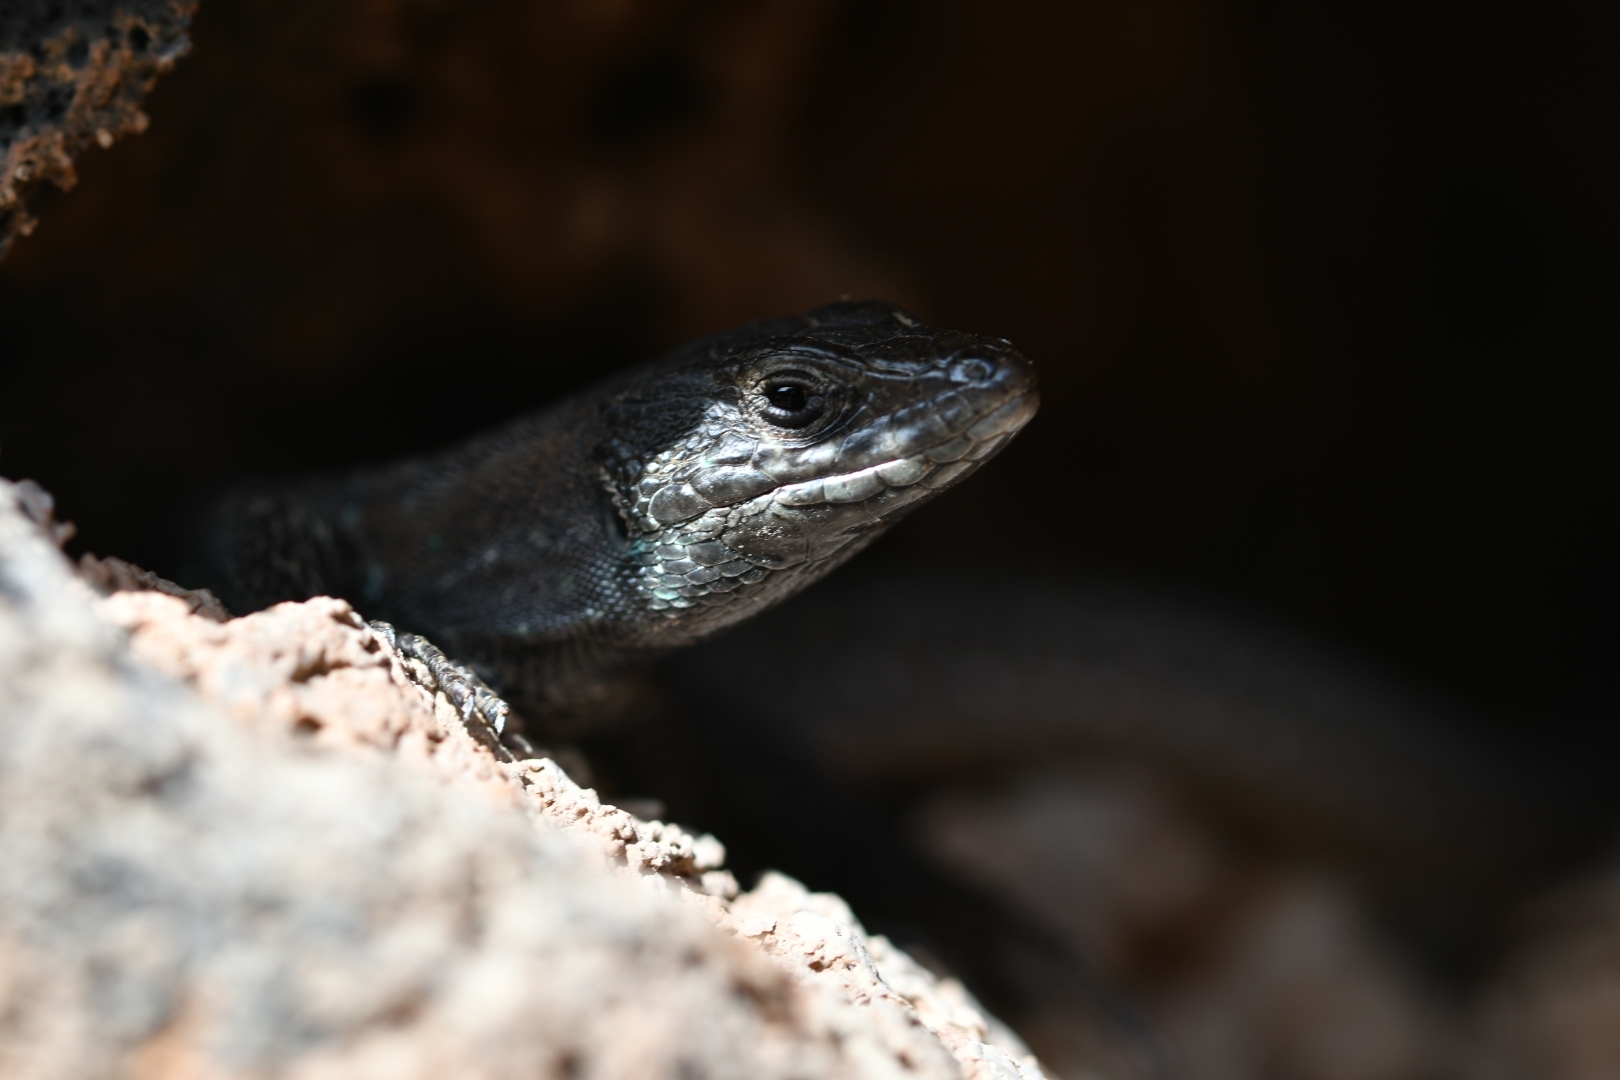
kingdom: Animalia
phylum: Chordata
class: Squamata
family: Lacertidae
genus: Gallotia
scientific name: Gallotia atlantica
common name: Atlantic lizard
